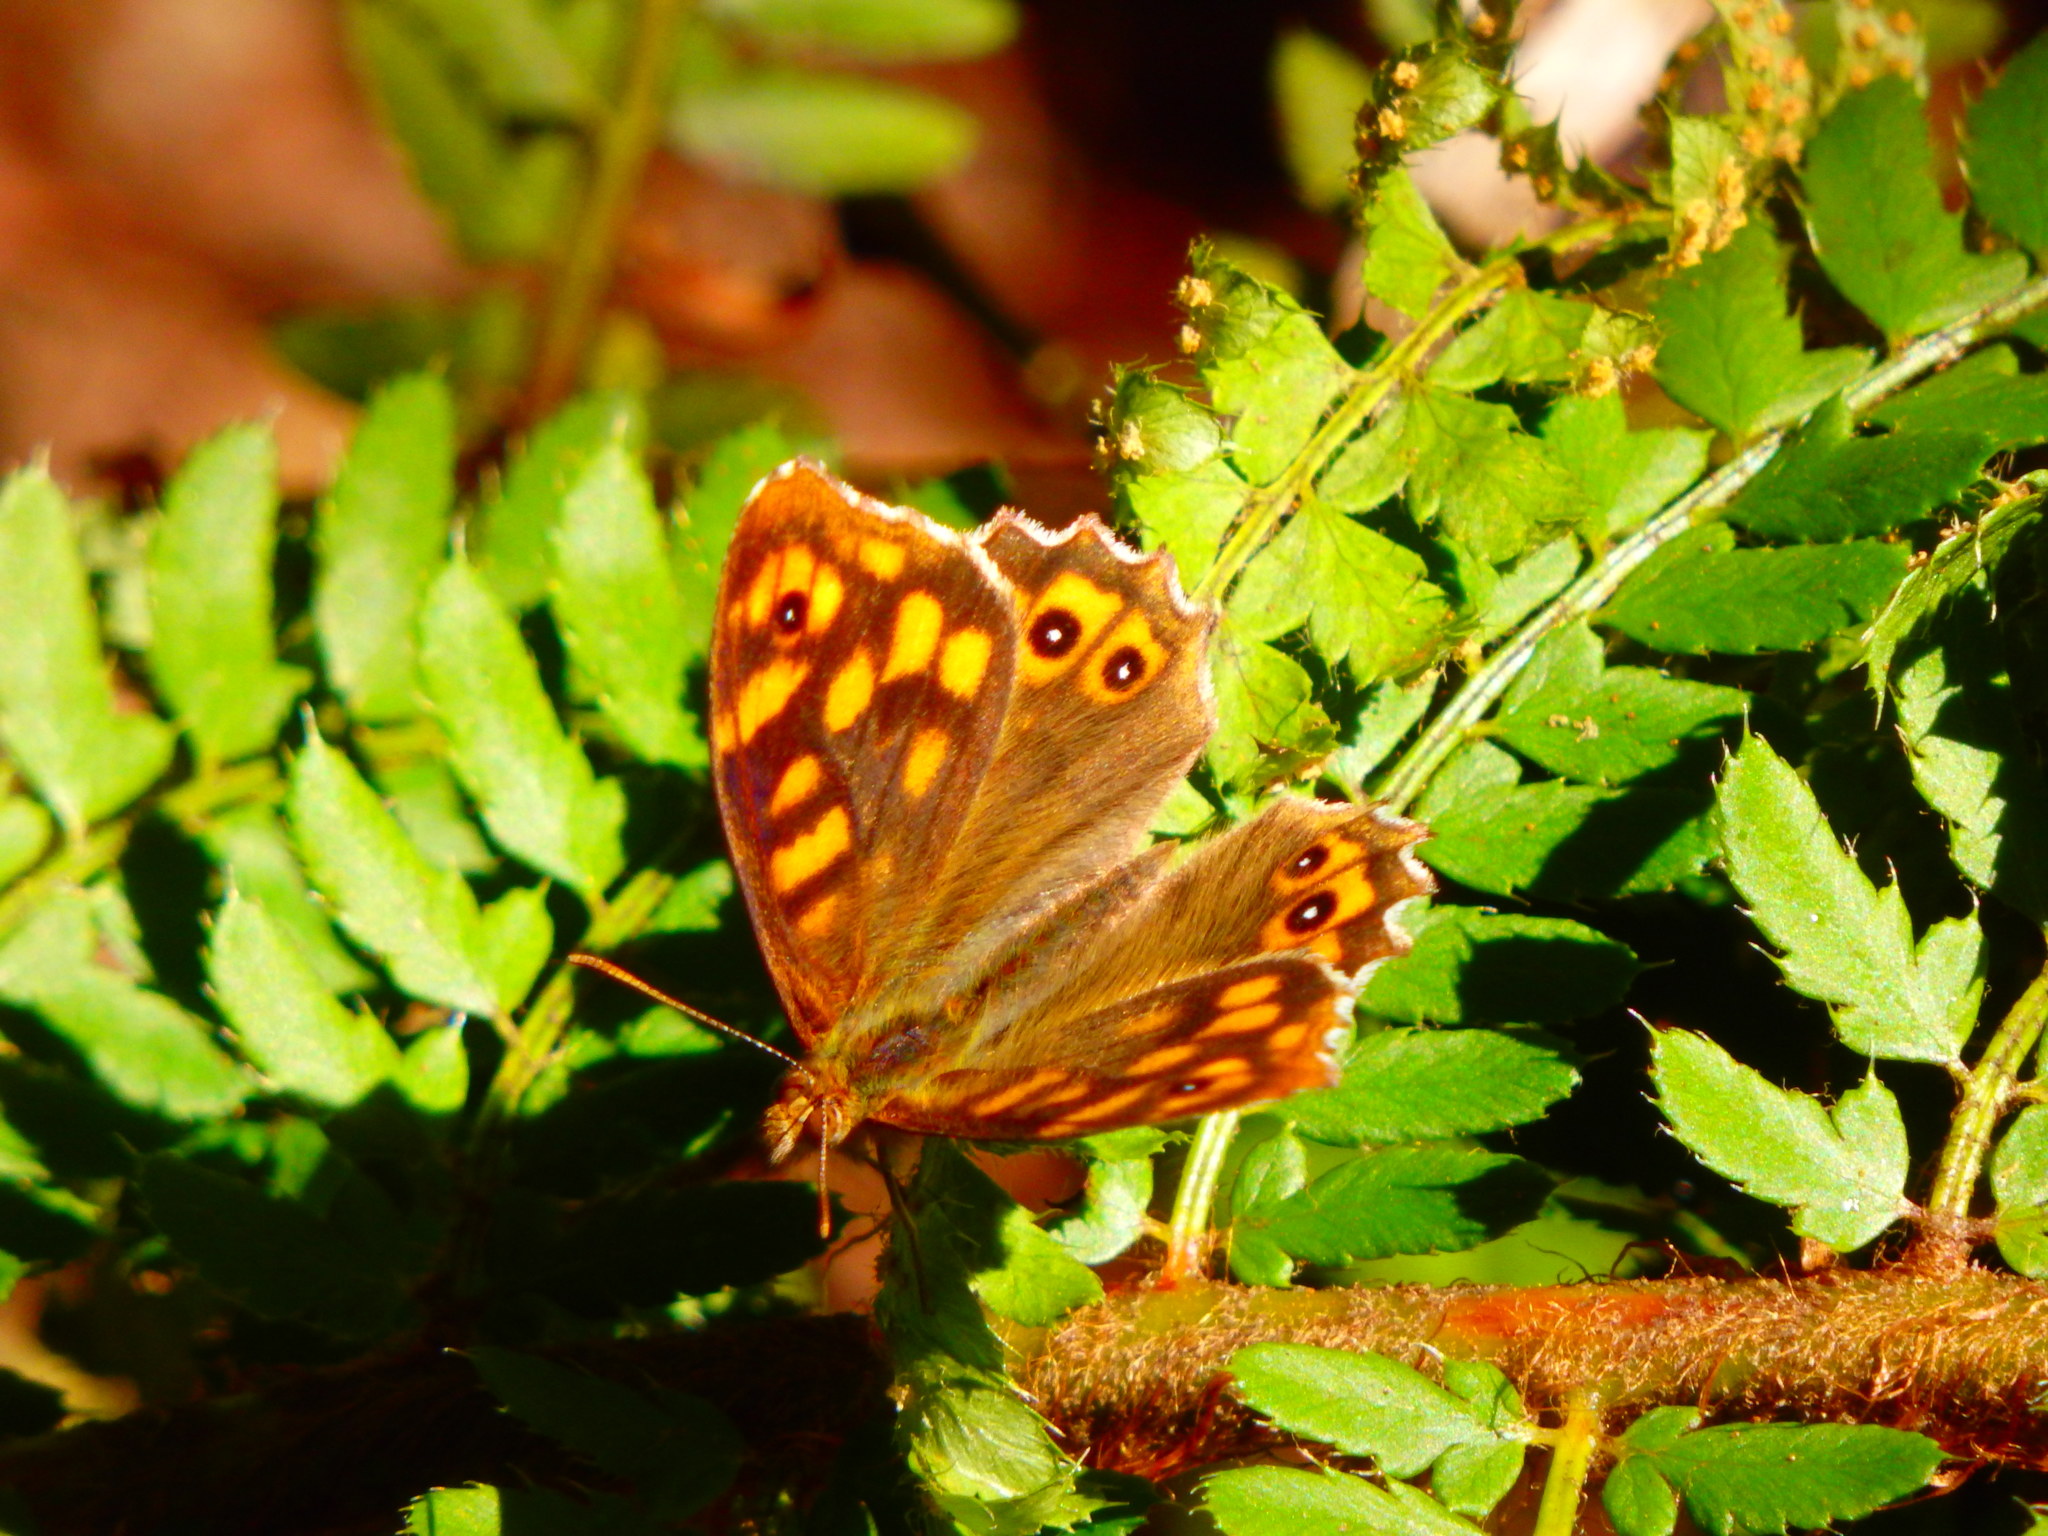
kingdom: Animalia
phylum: Arthropoda
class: Insecta
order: Lepidoptera
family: Nymphalidae
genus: Pararge
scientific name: Pararge aegeria
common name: Speckled wood
